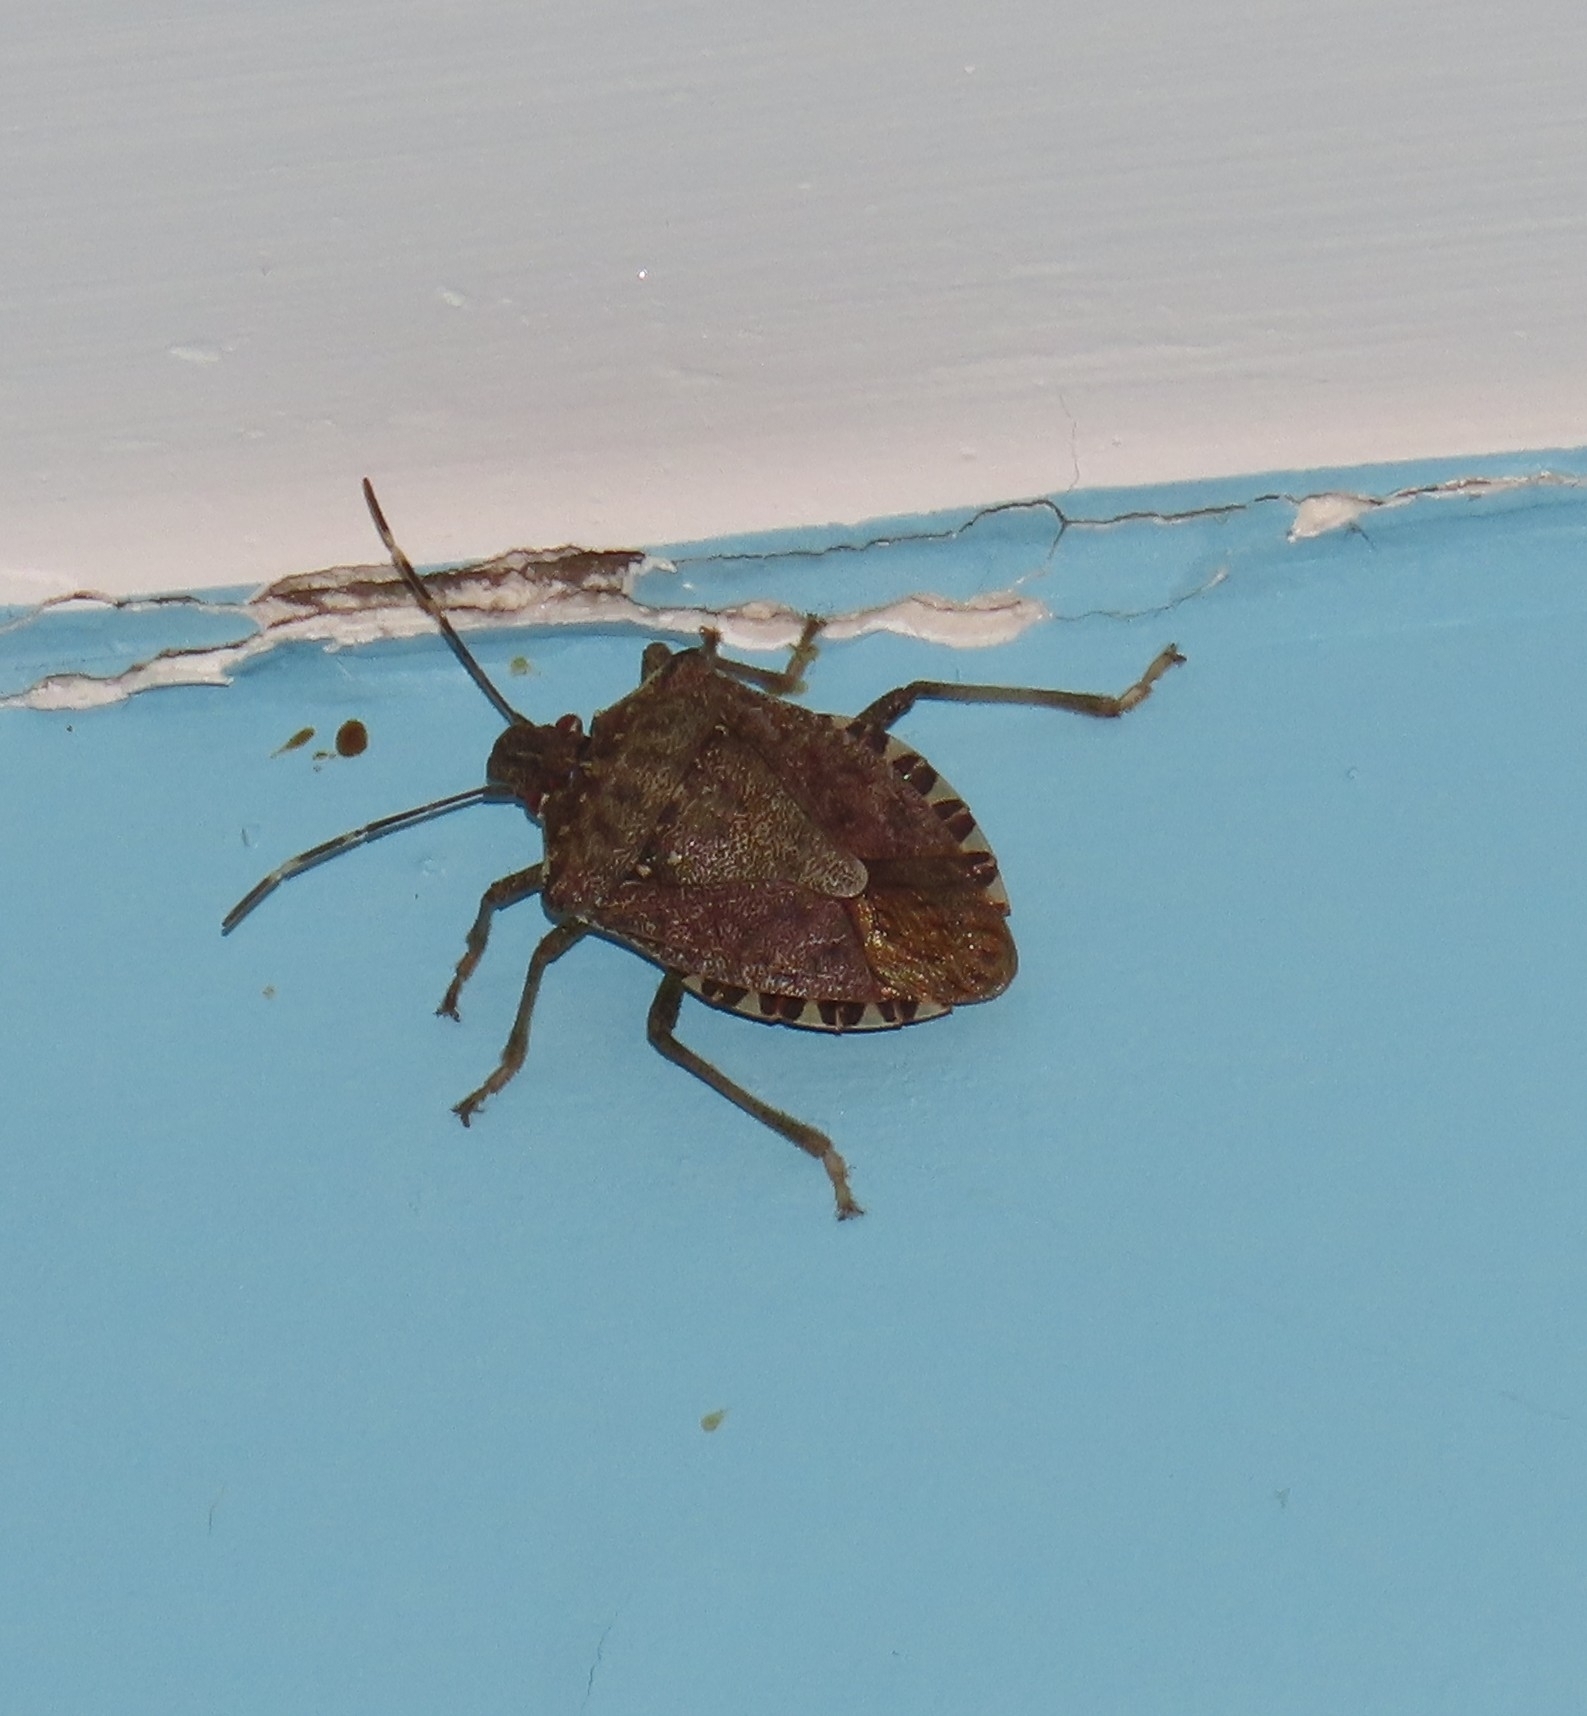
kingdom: Animalia
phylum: Arthropoda
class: Insecta
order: Hemiptera
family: Pentatomidae
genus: Halyomorpha
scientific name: Halyomorpha halys
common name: Brown marmorated stink bug
